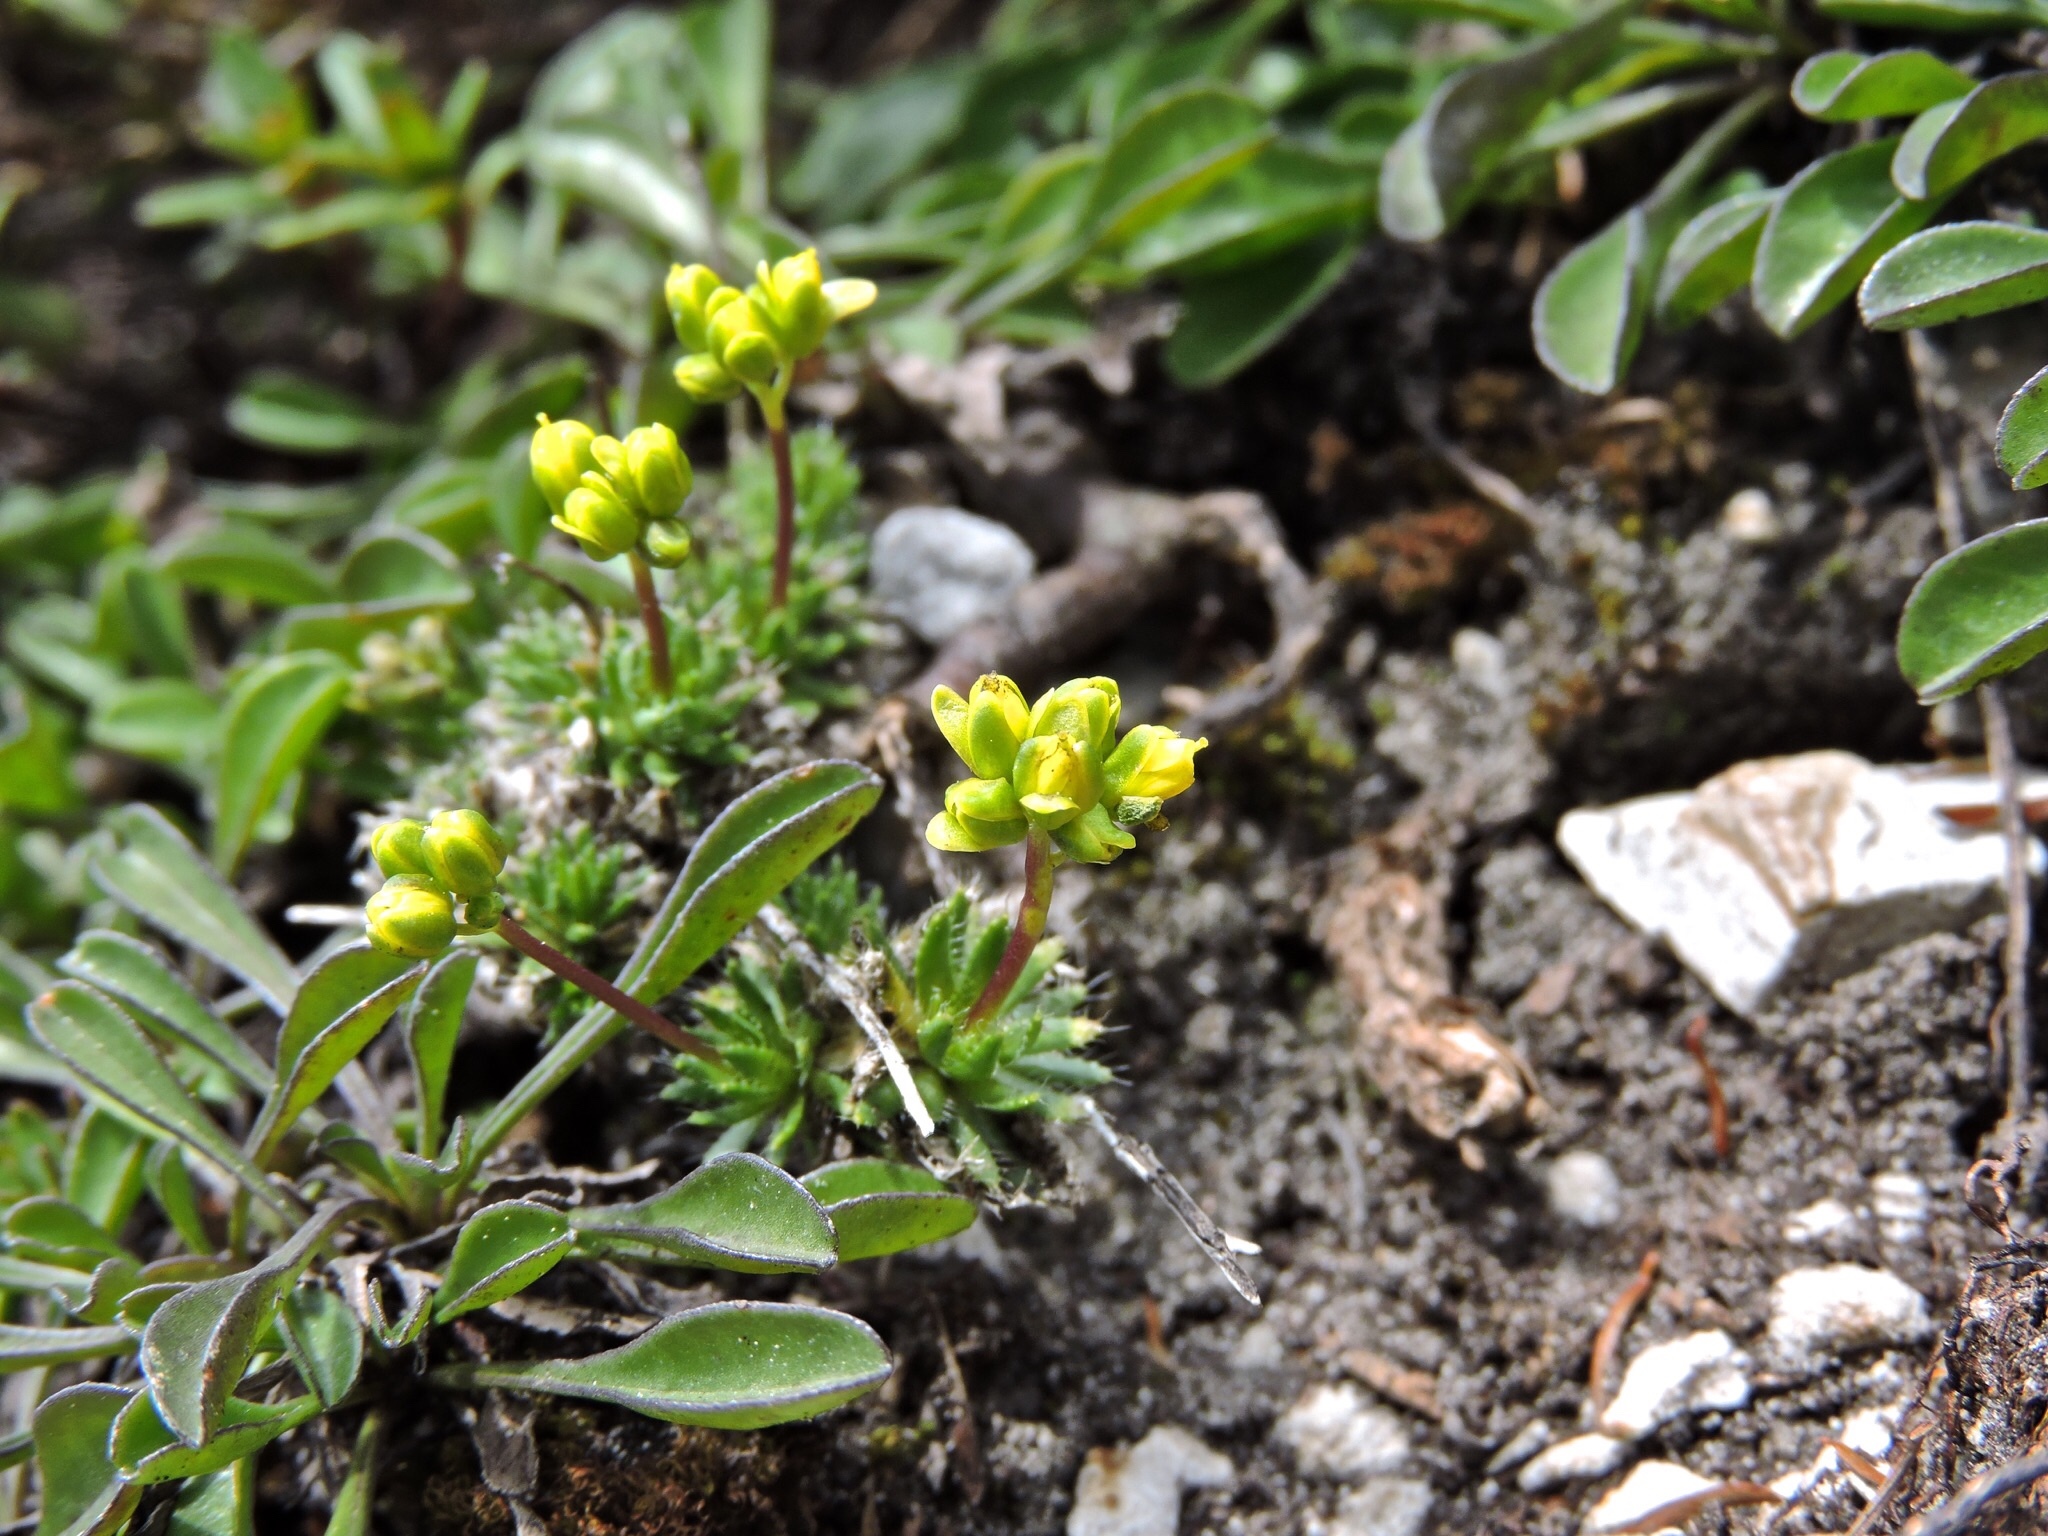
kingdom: Plantae
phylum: Tracheophyta
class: Magnoliopsida
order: Brassicales
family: Brassicaceae
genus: Draba
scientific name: Draba aizoides
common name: Yellow whitlowgrass
